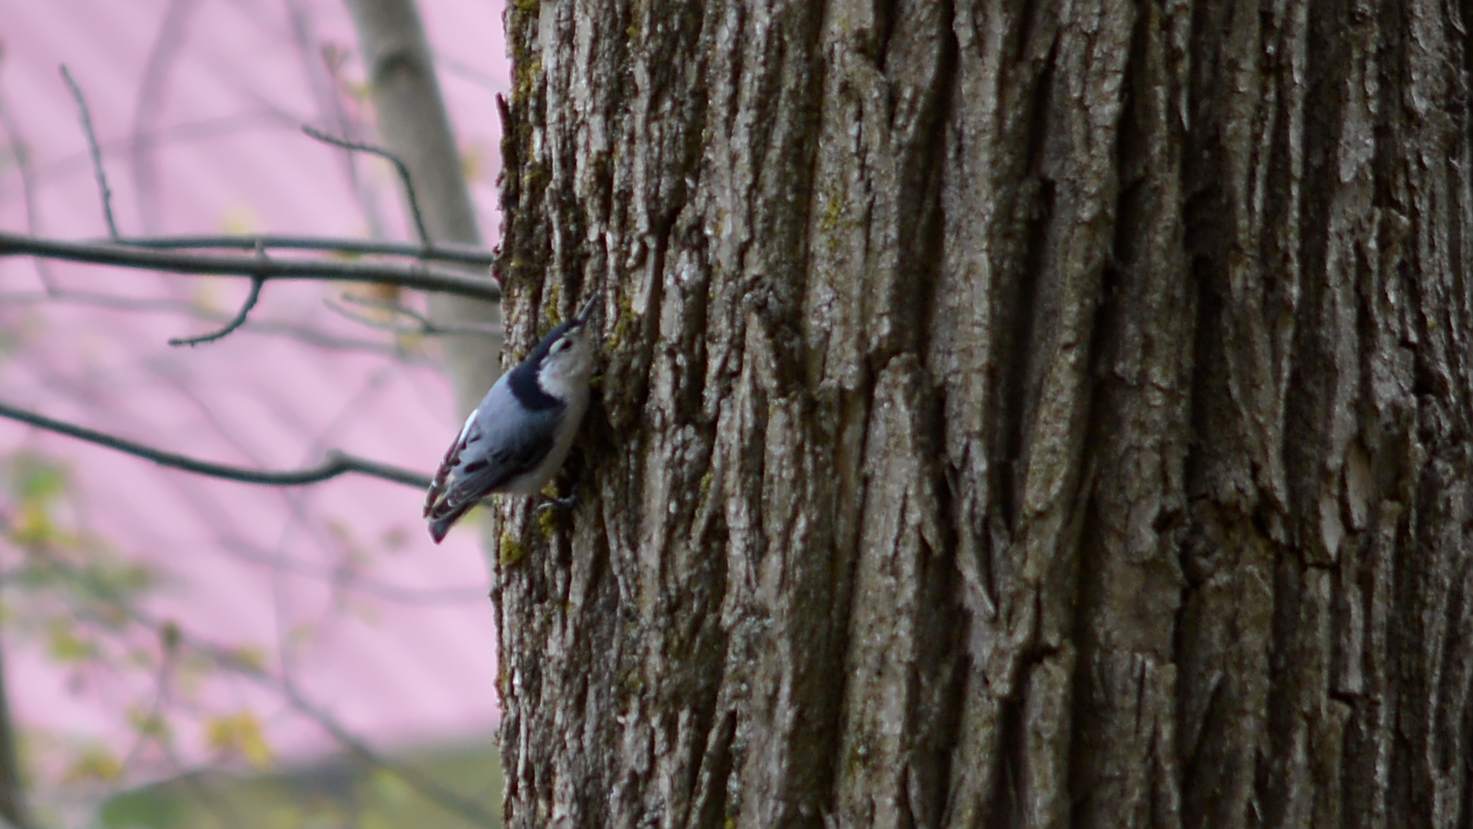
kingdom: Animalia
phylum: Chordata
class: Aves
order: Passeriformes
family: Sittidae
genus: Sitta
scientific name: Sitta carolinensis
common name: White-breasted nuthatch
